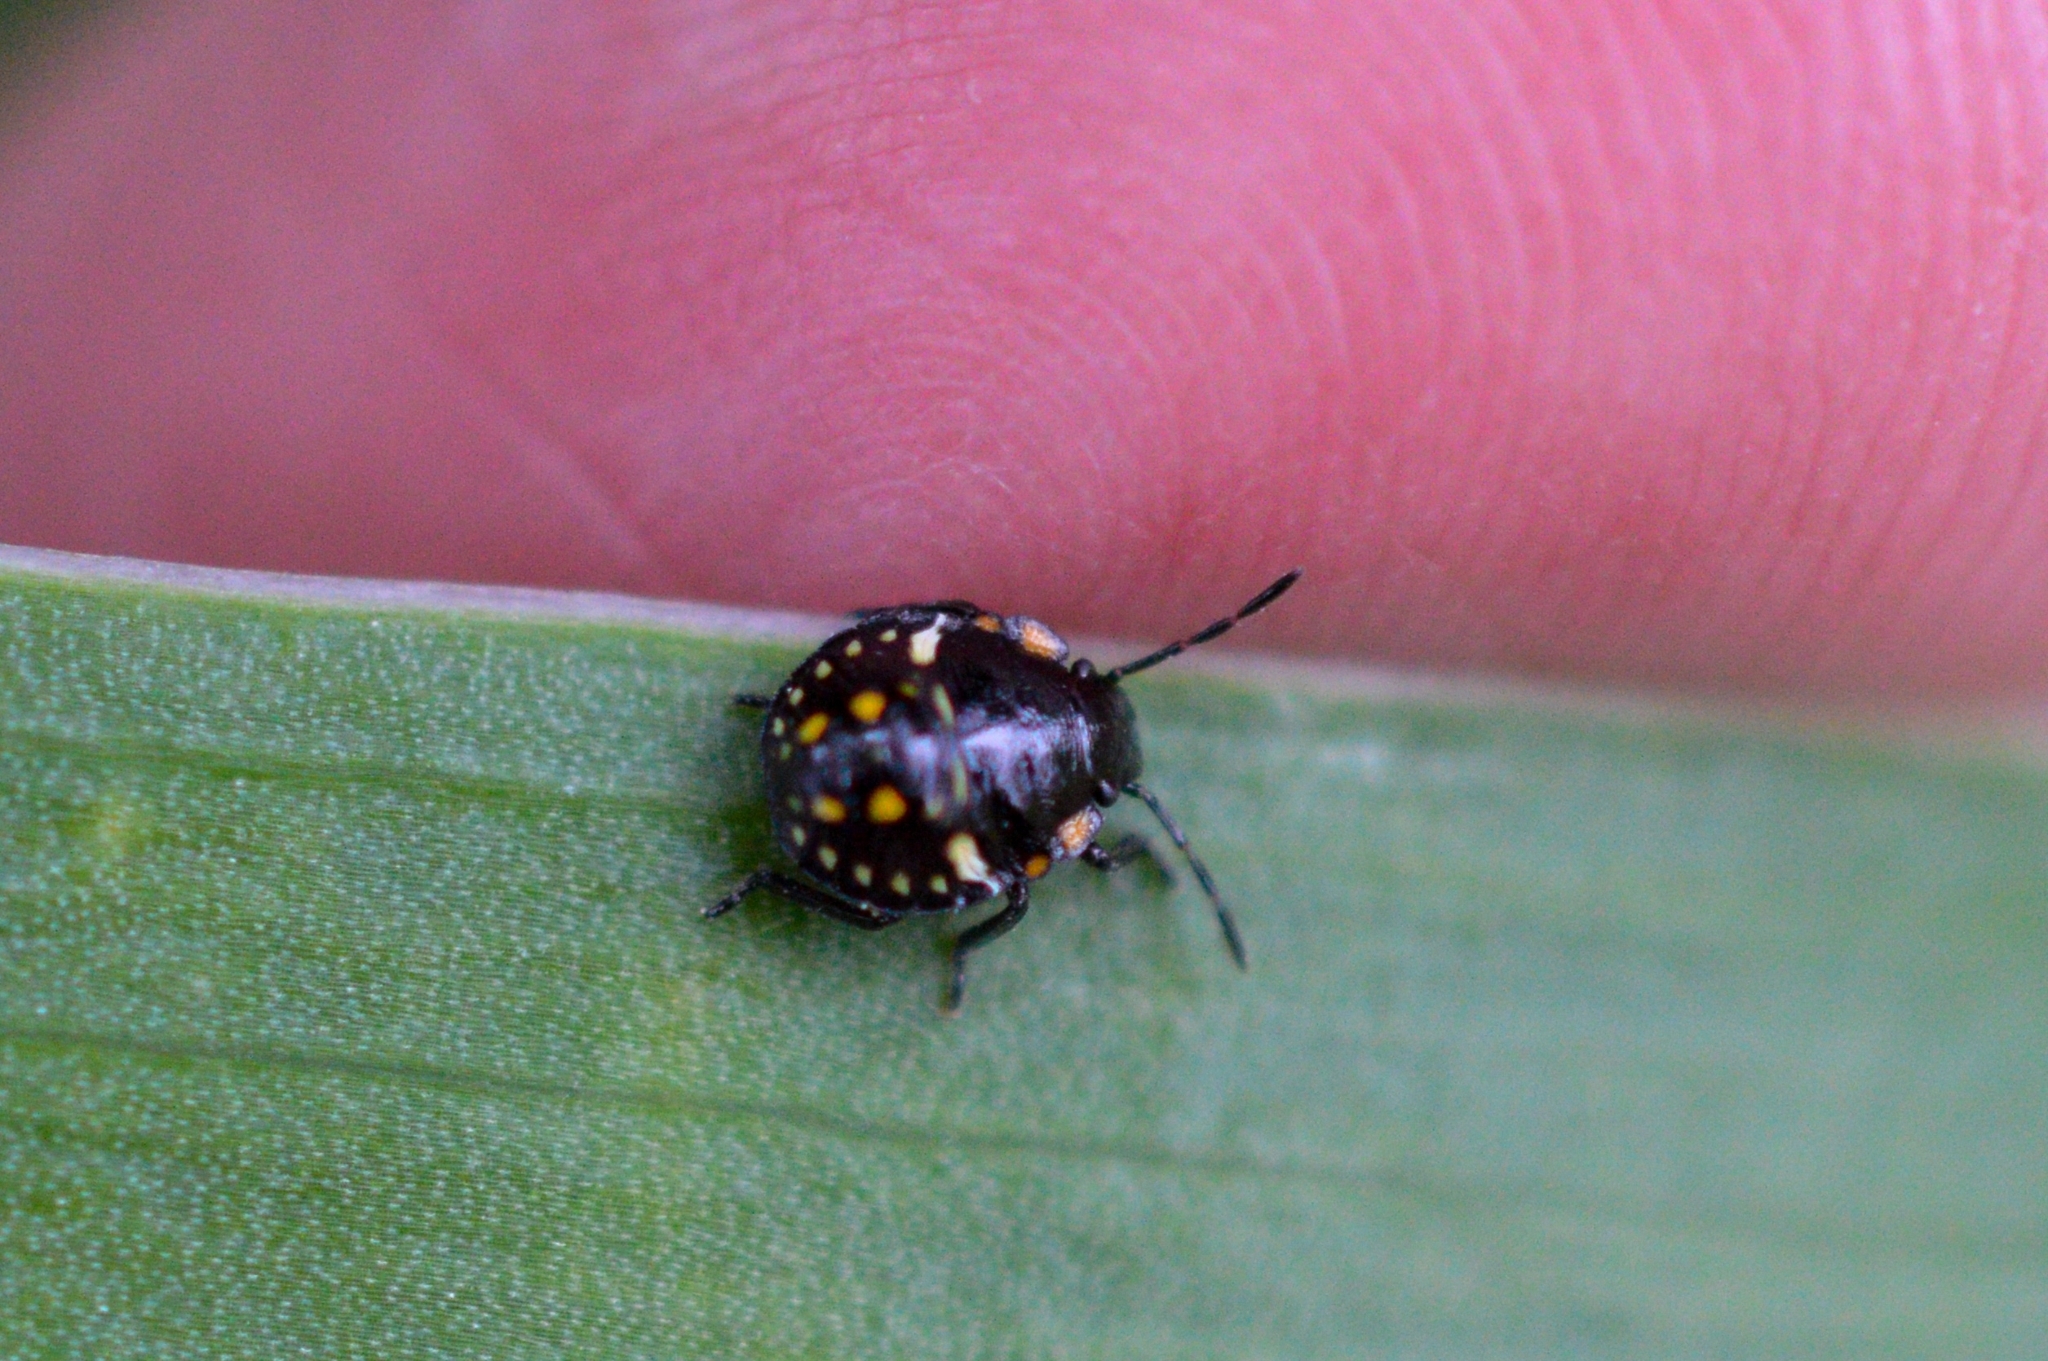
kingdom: Animalia
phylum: Arthropoda
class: Insecta
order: Hemiptera
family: Pentatomidae
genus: Nezara
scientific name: Nezara viridula
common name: Southern green stink bug
